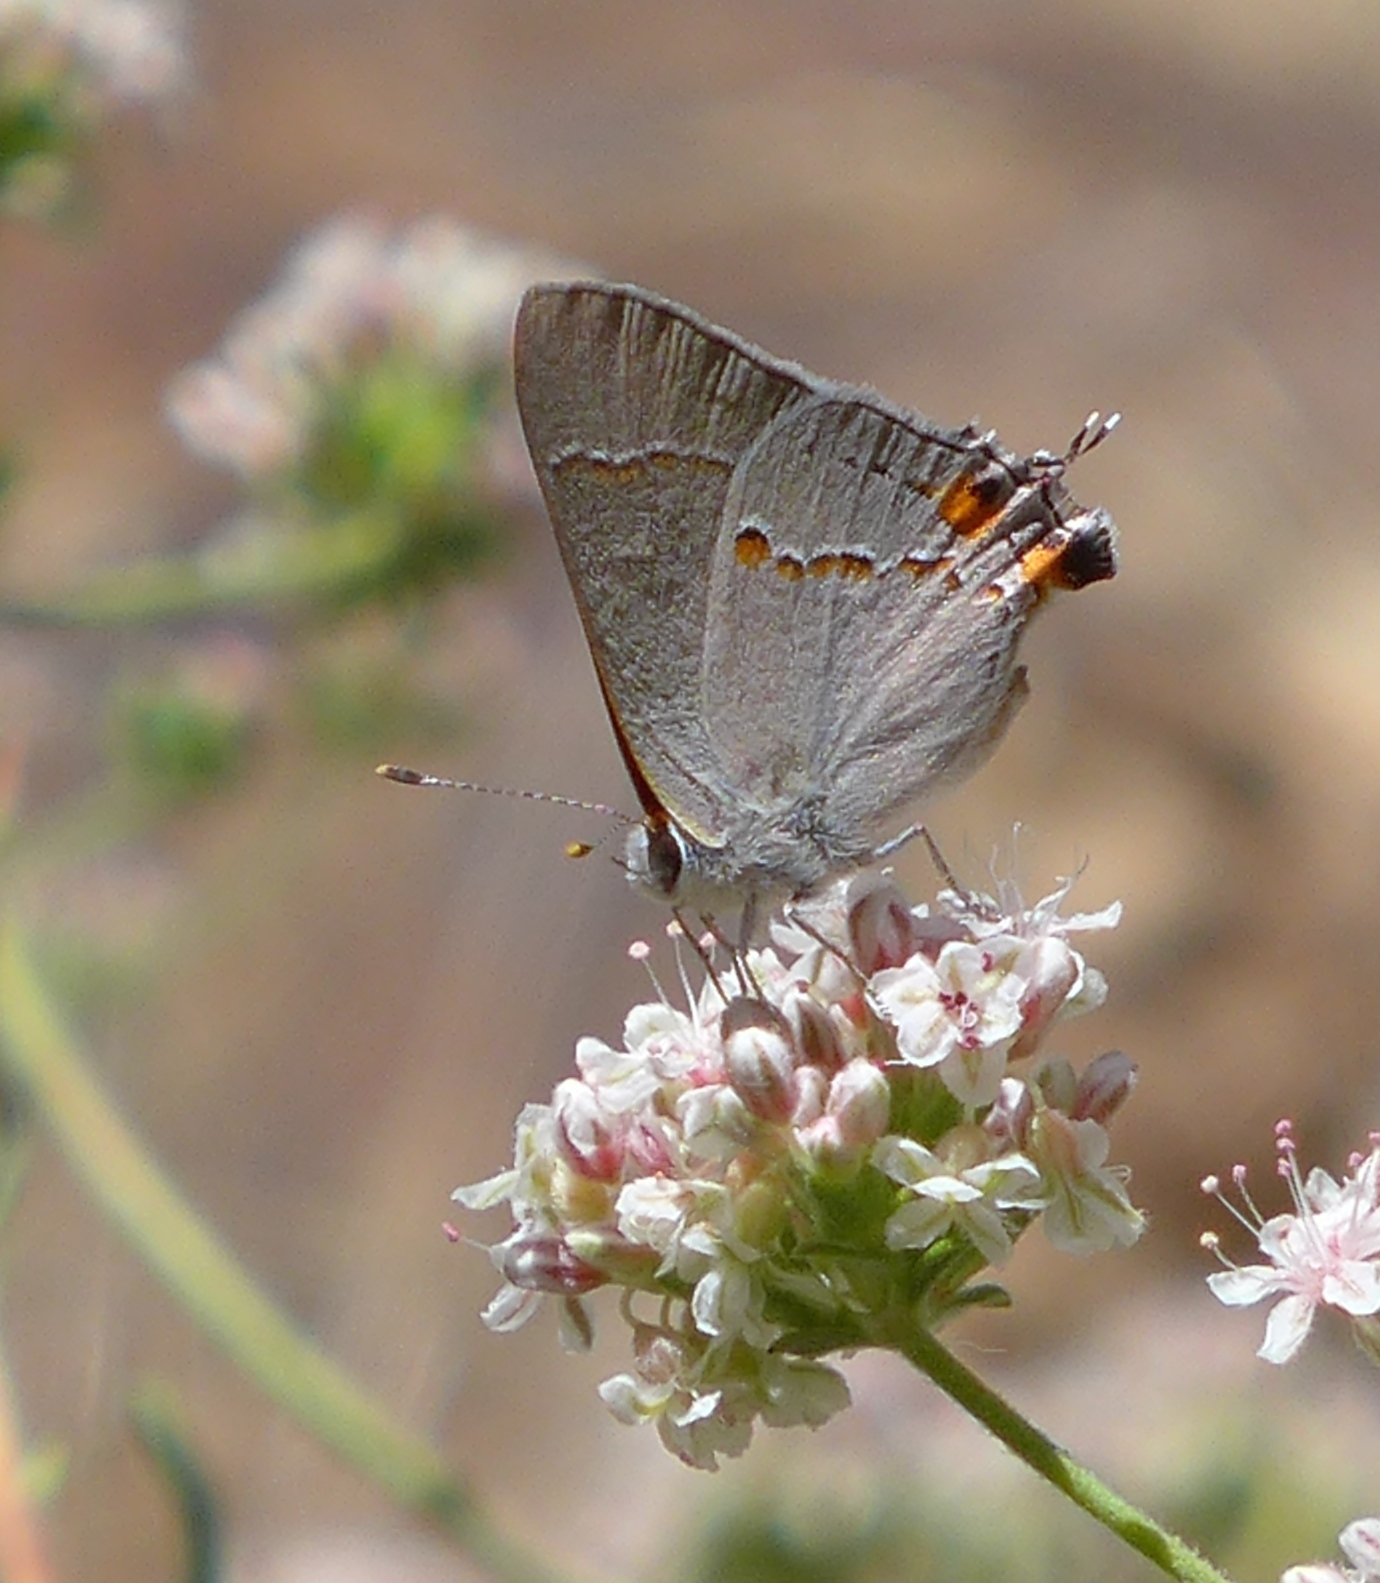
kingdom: Animalia
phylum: Arthropoda
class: Insecta
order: Lepidoptera
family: Lycaenidae
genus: Strymon
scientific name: Strymon melinus
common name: Gray hairstreak
